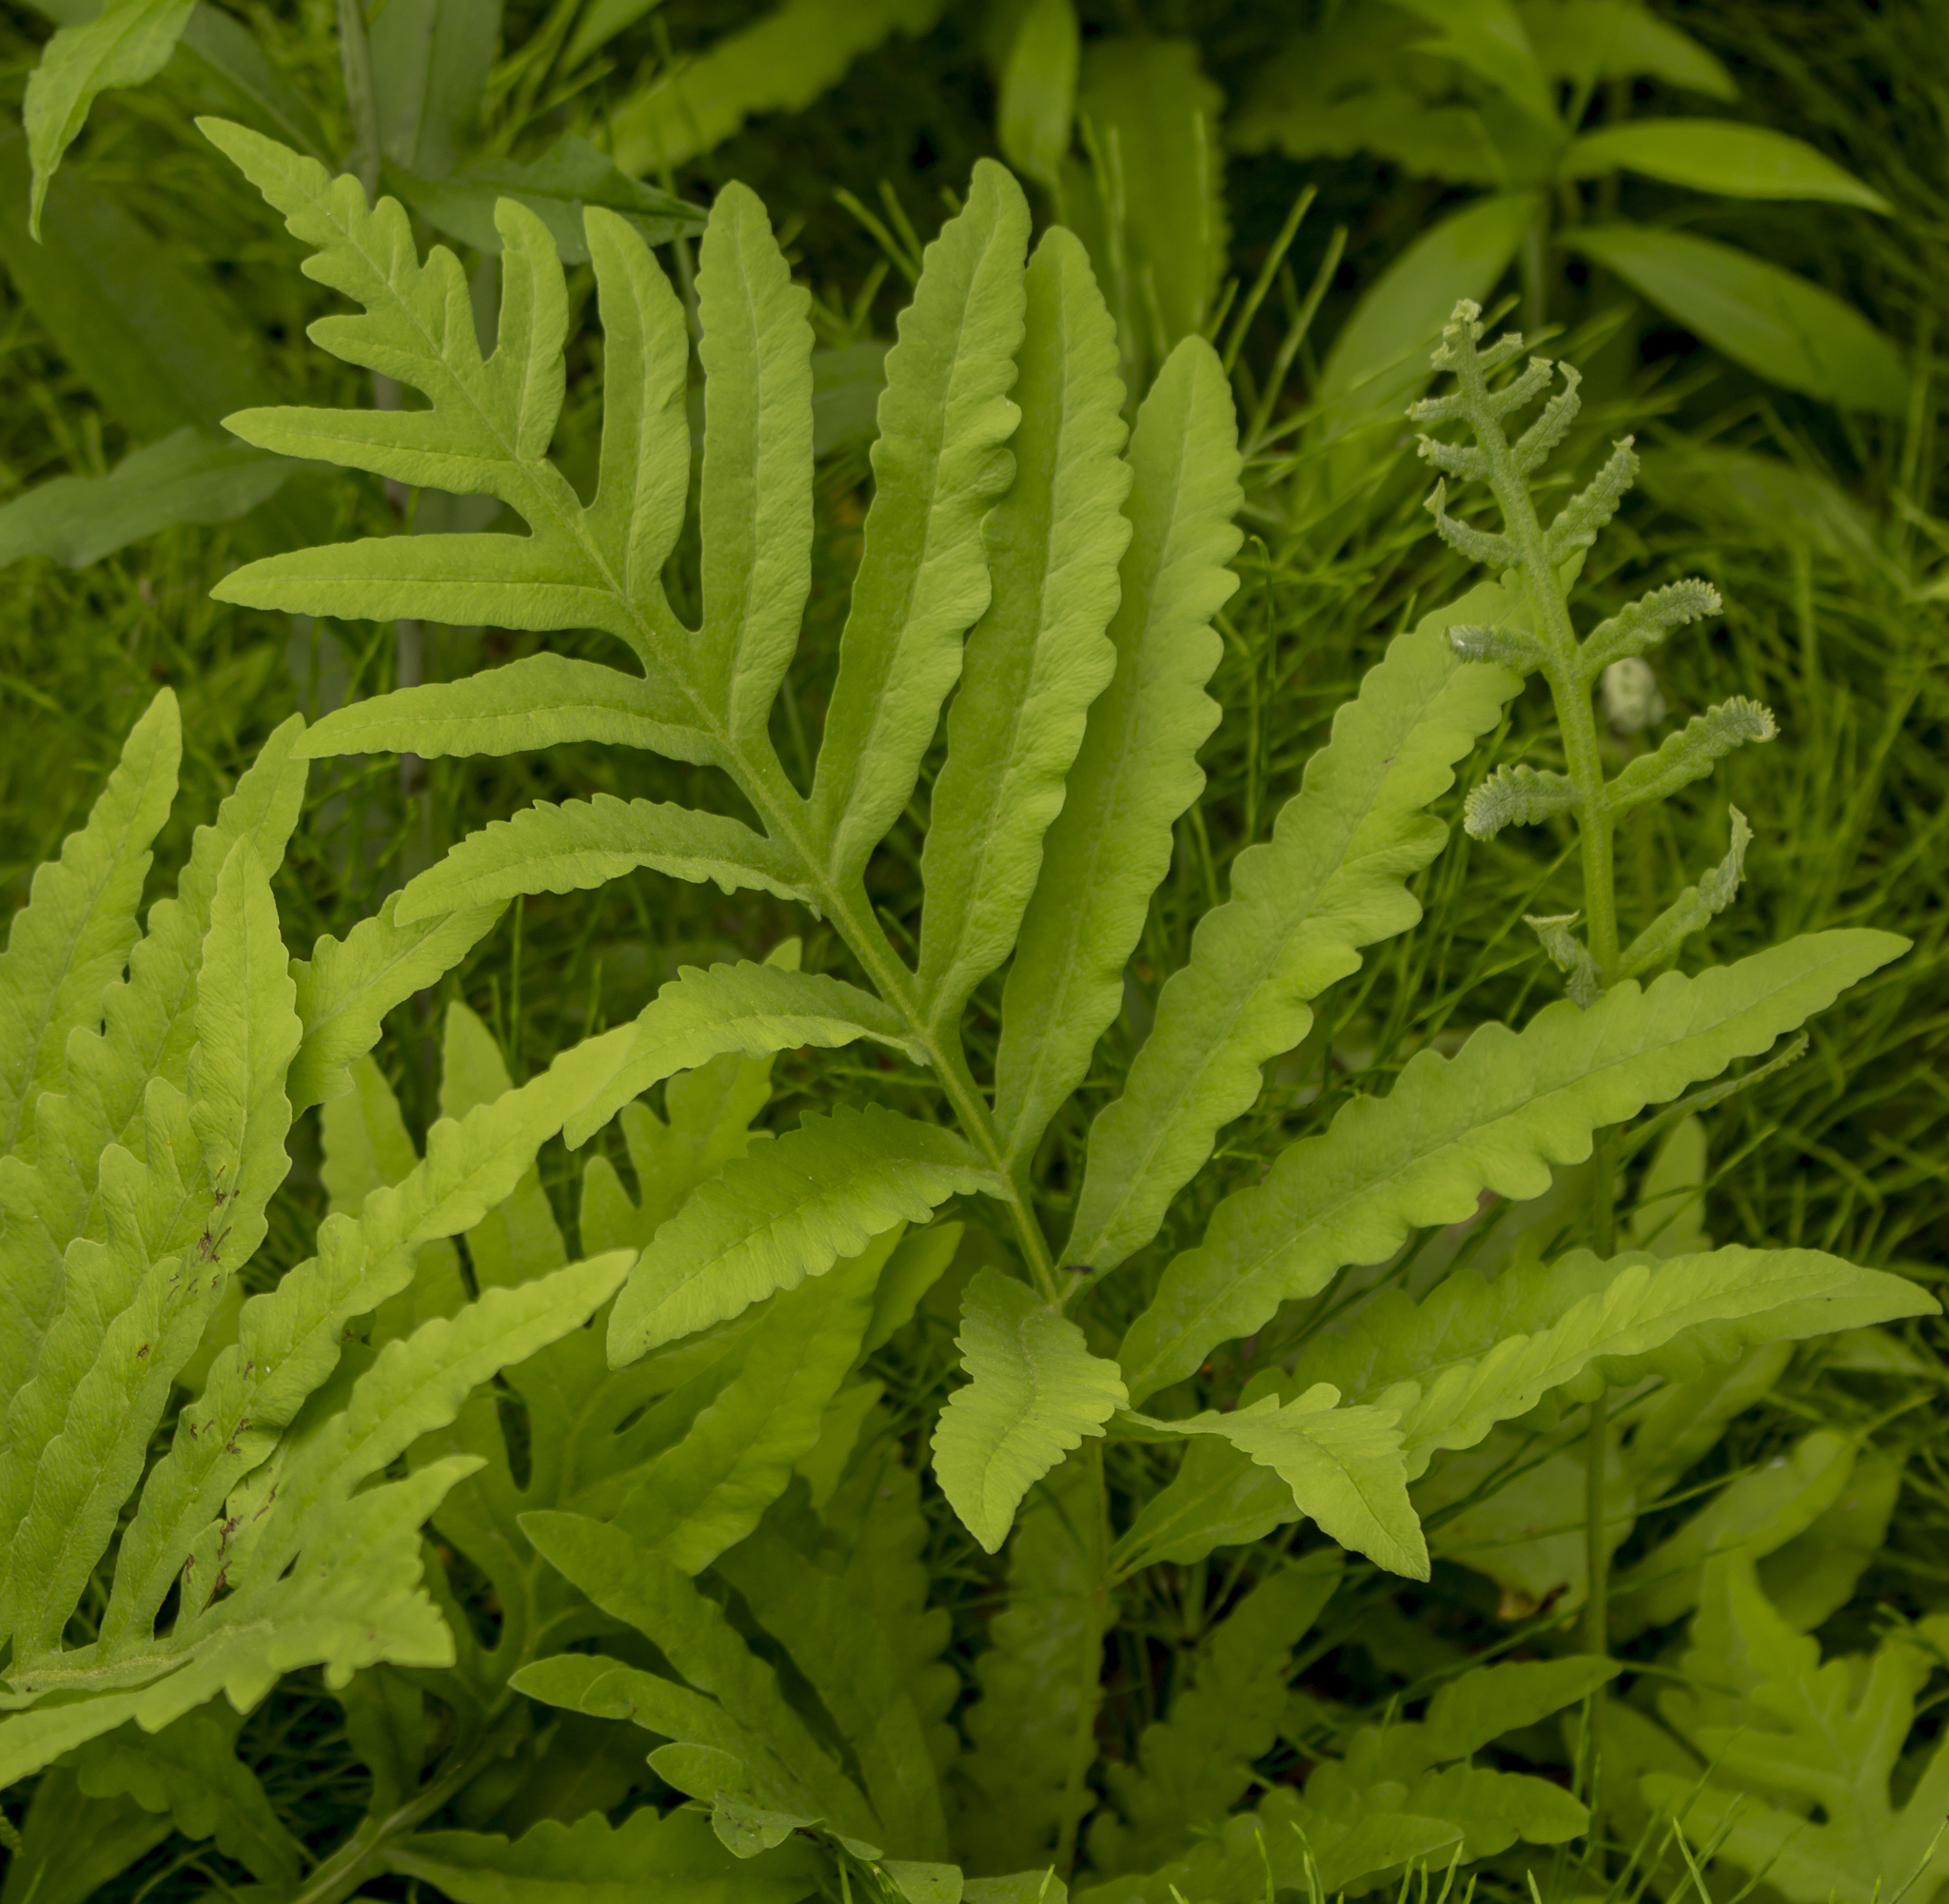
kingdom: Plantae
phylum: Tracheophyta
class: Polypodiopsida
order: Polypodiales
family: Onocleaceae
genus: Onoclea
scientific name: Onoclea sensibilis
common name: Sensitive fern
